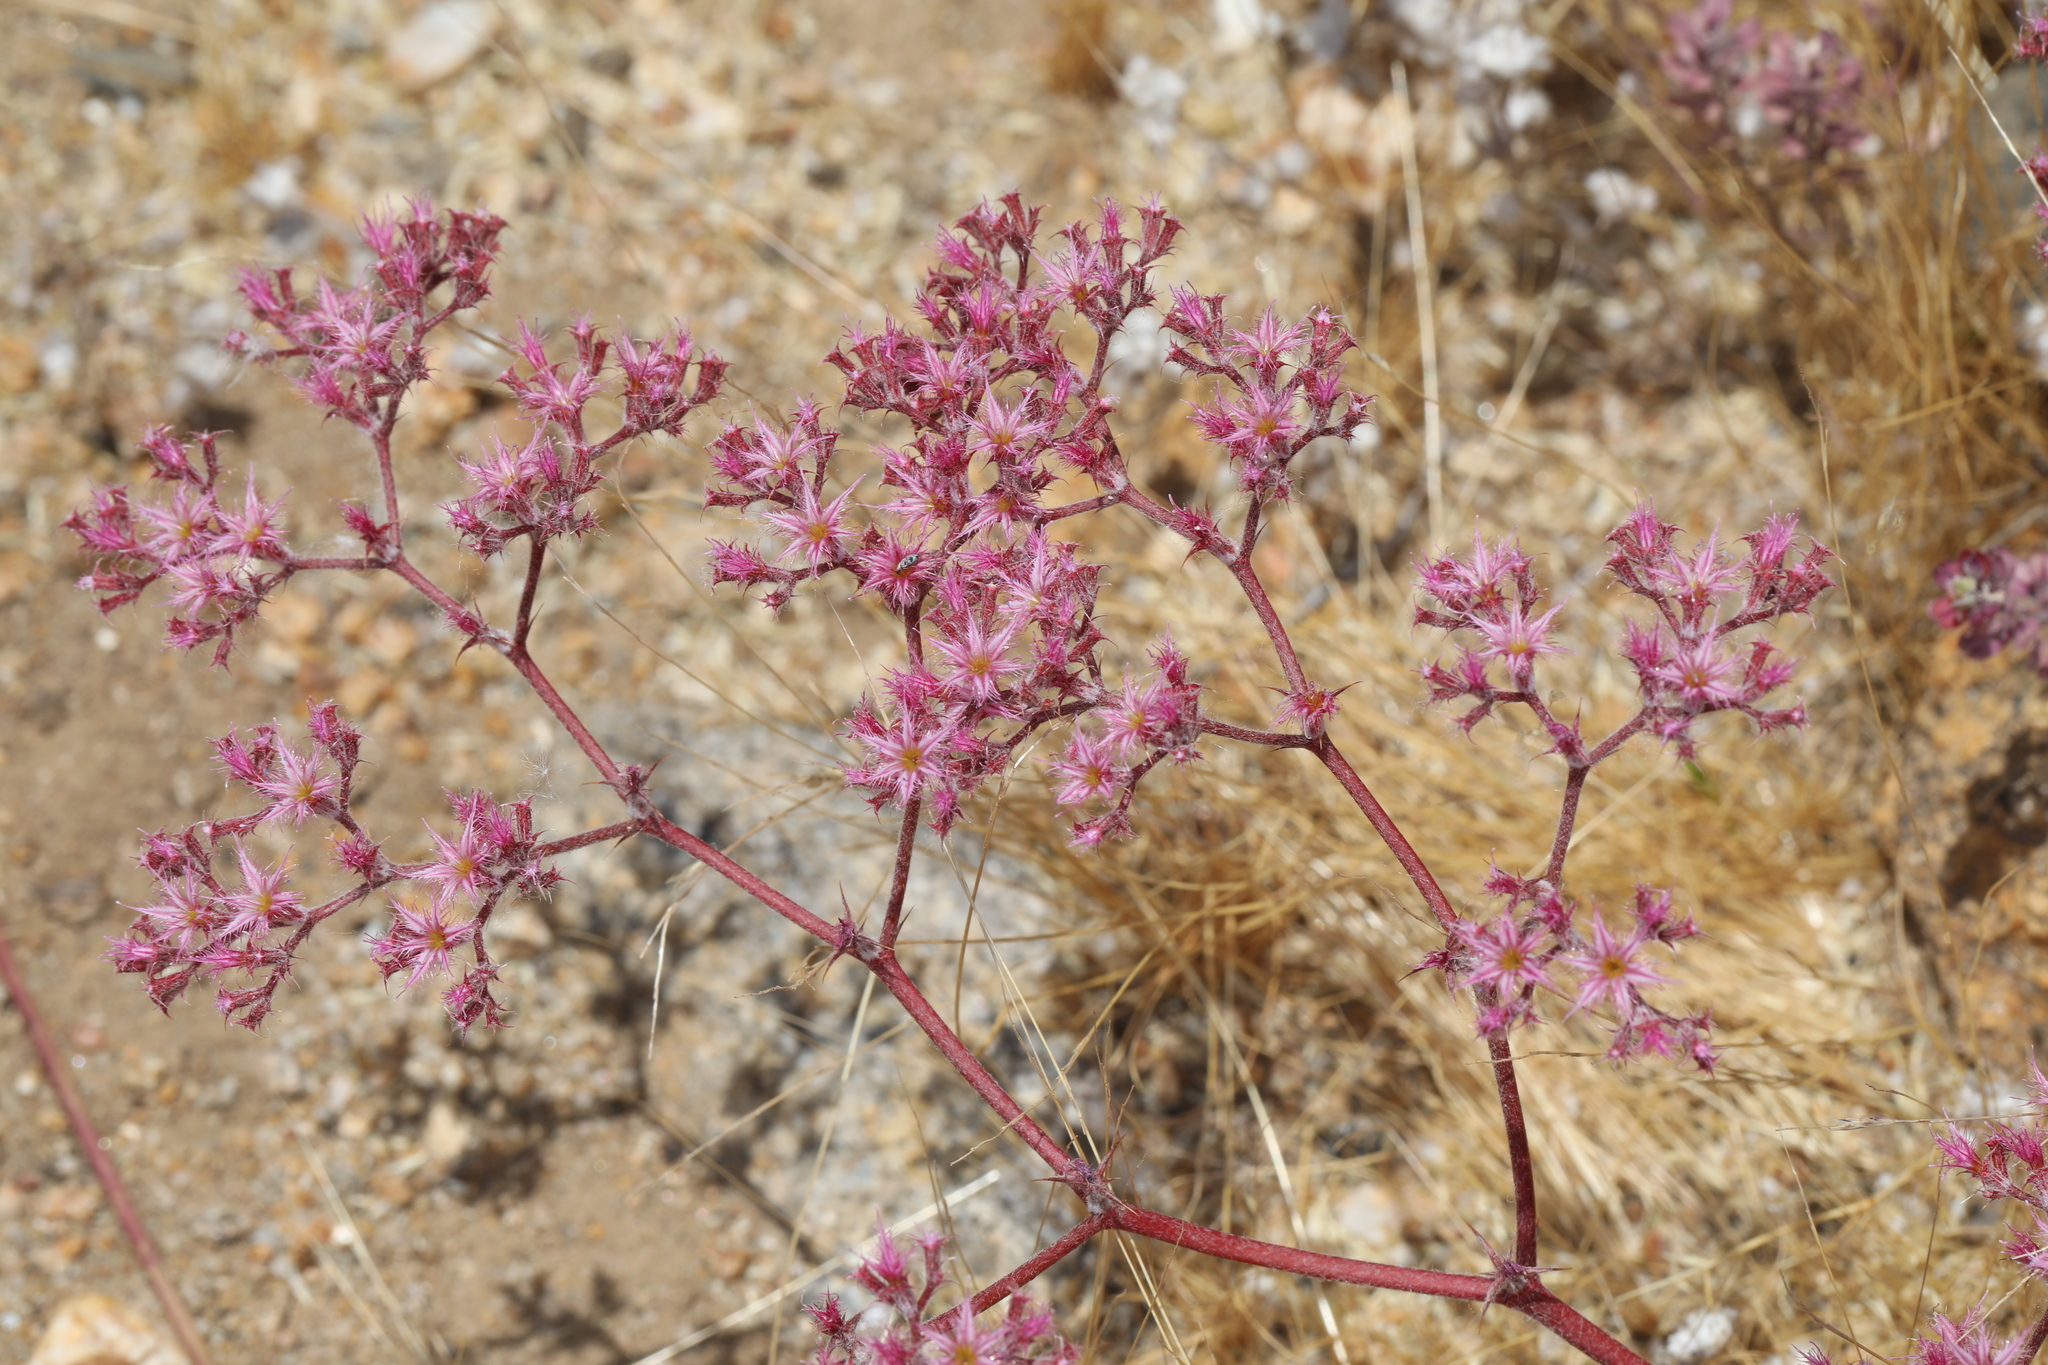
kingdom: Plantae
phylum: Tracheophyta
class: Magnoliopsida
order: Caryophyllales
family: Polygonaceae
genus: Chorizanthe
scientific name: Chorizanthe fimbriata
